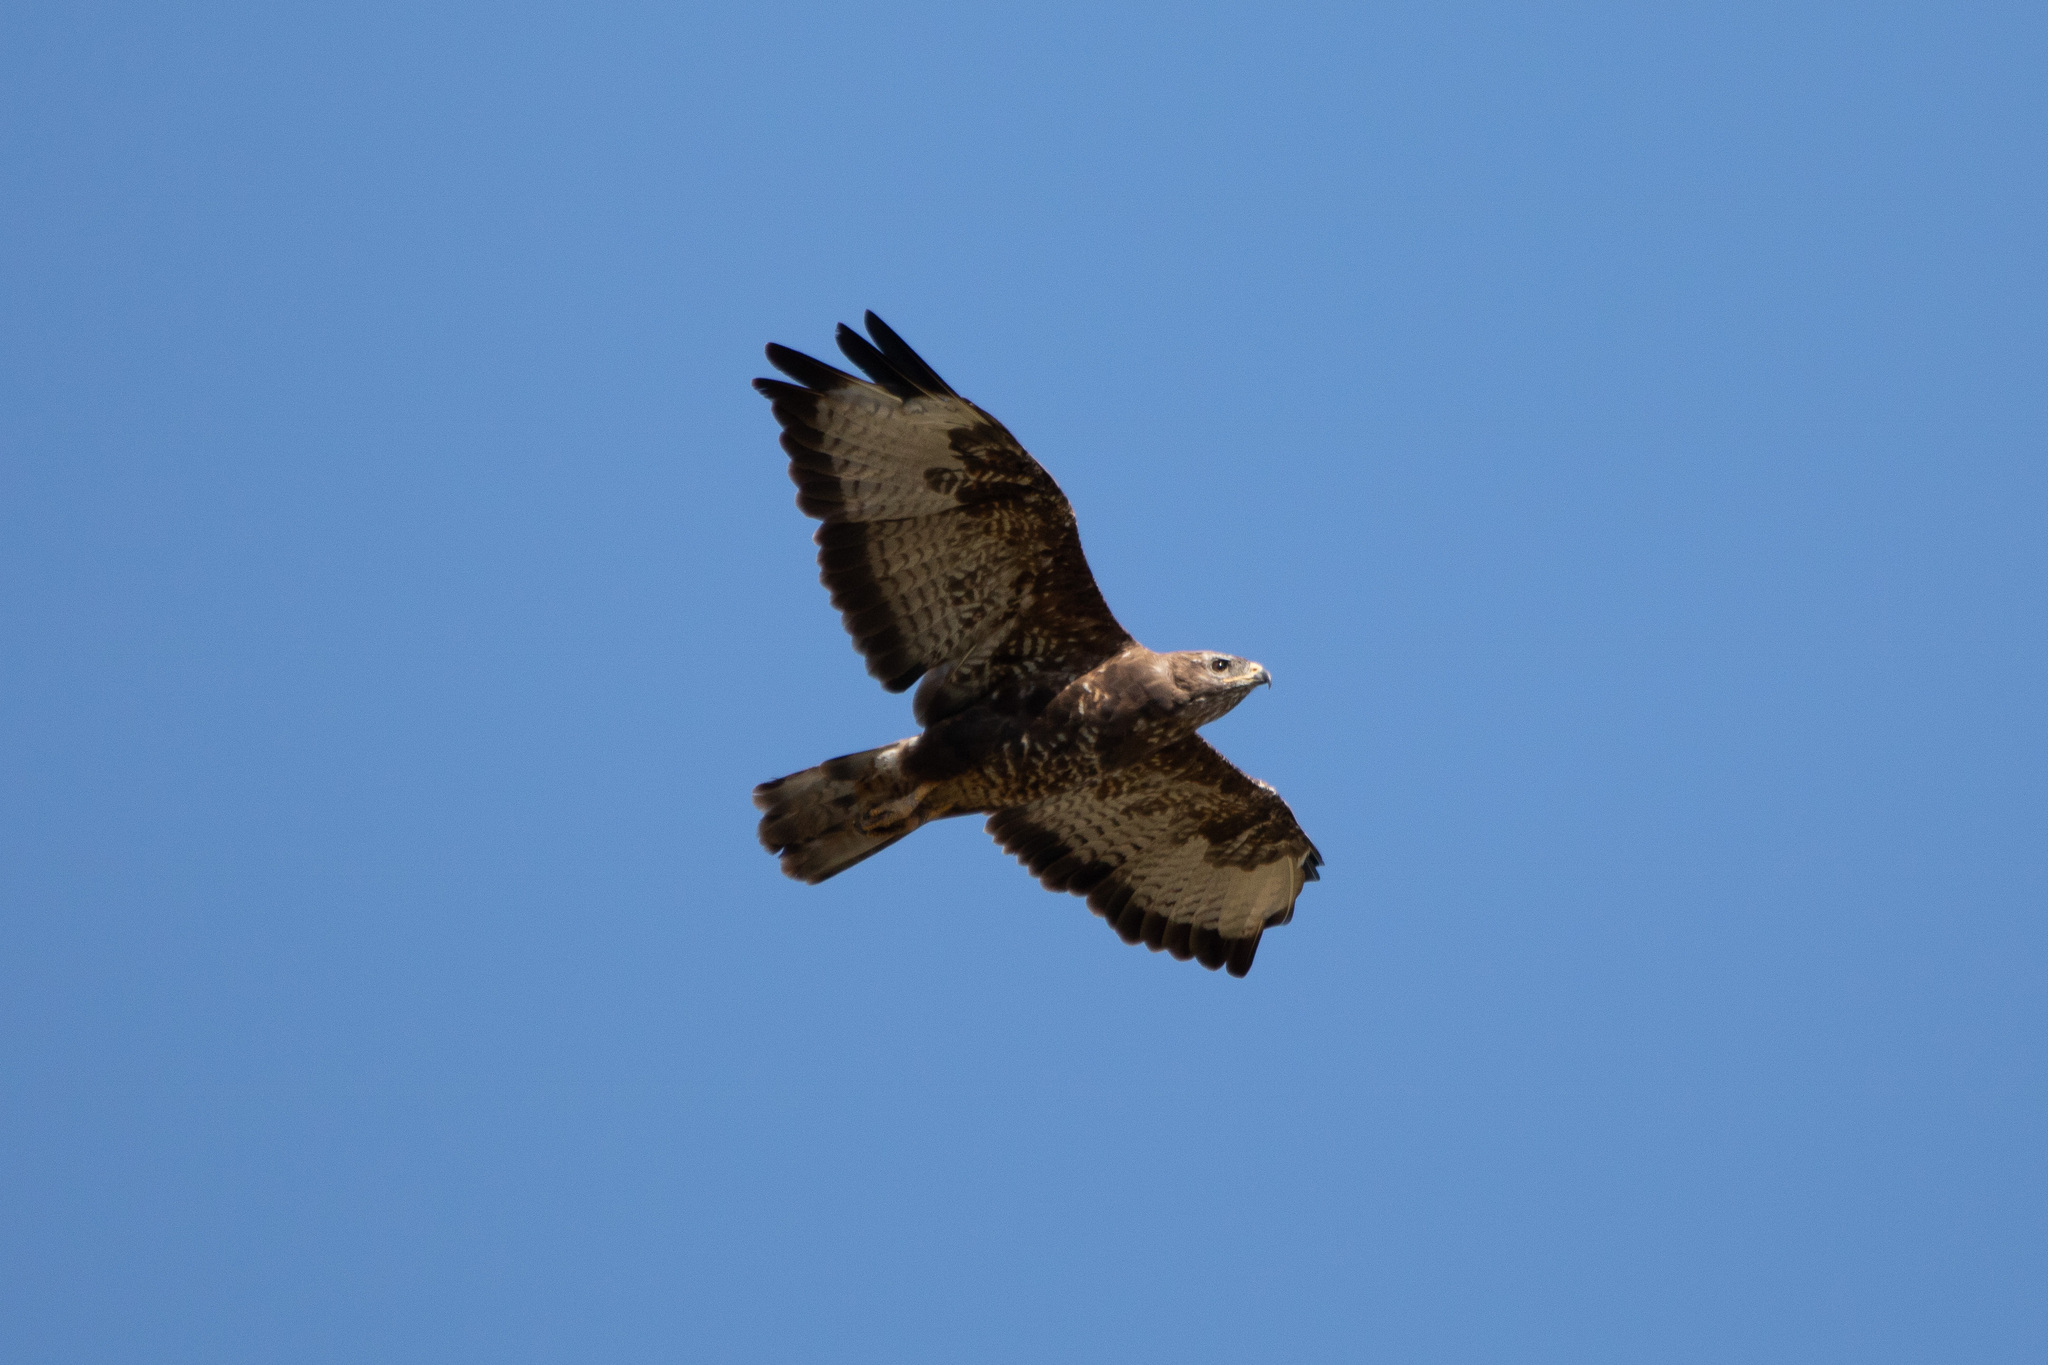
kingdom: Animalia
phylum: Chordata
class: Aves
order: Accipitriformes
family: Accipitridae
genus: Buteo
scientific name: Buteo buteo
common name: Common buzzard
